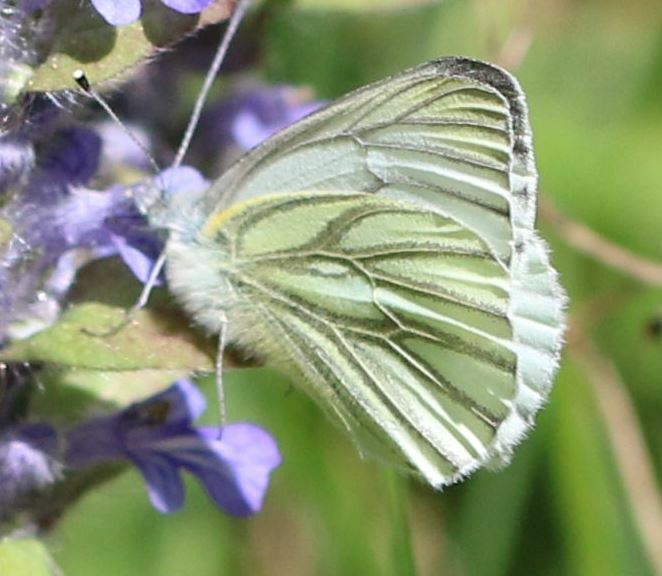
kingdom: Animalia
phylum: Arthropoda
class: Insecta
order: Lepidoptera
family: Pieridae
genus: Pieris
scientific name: Pieris napi
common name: Green-veined white
